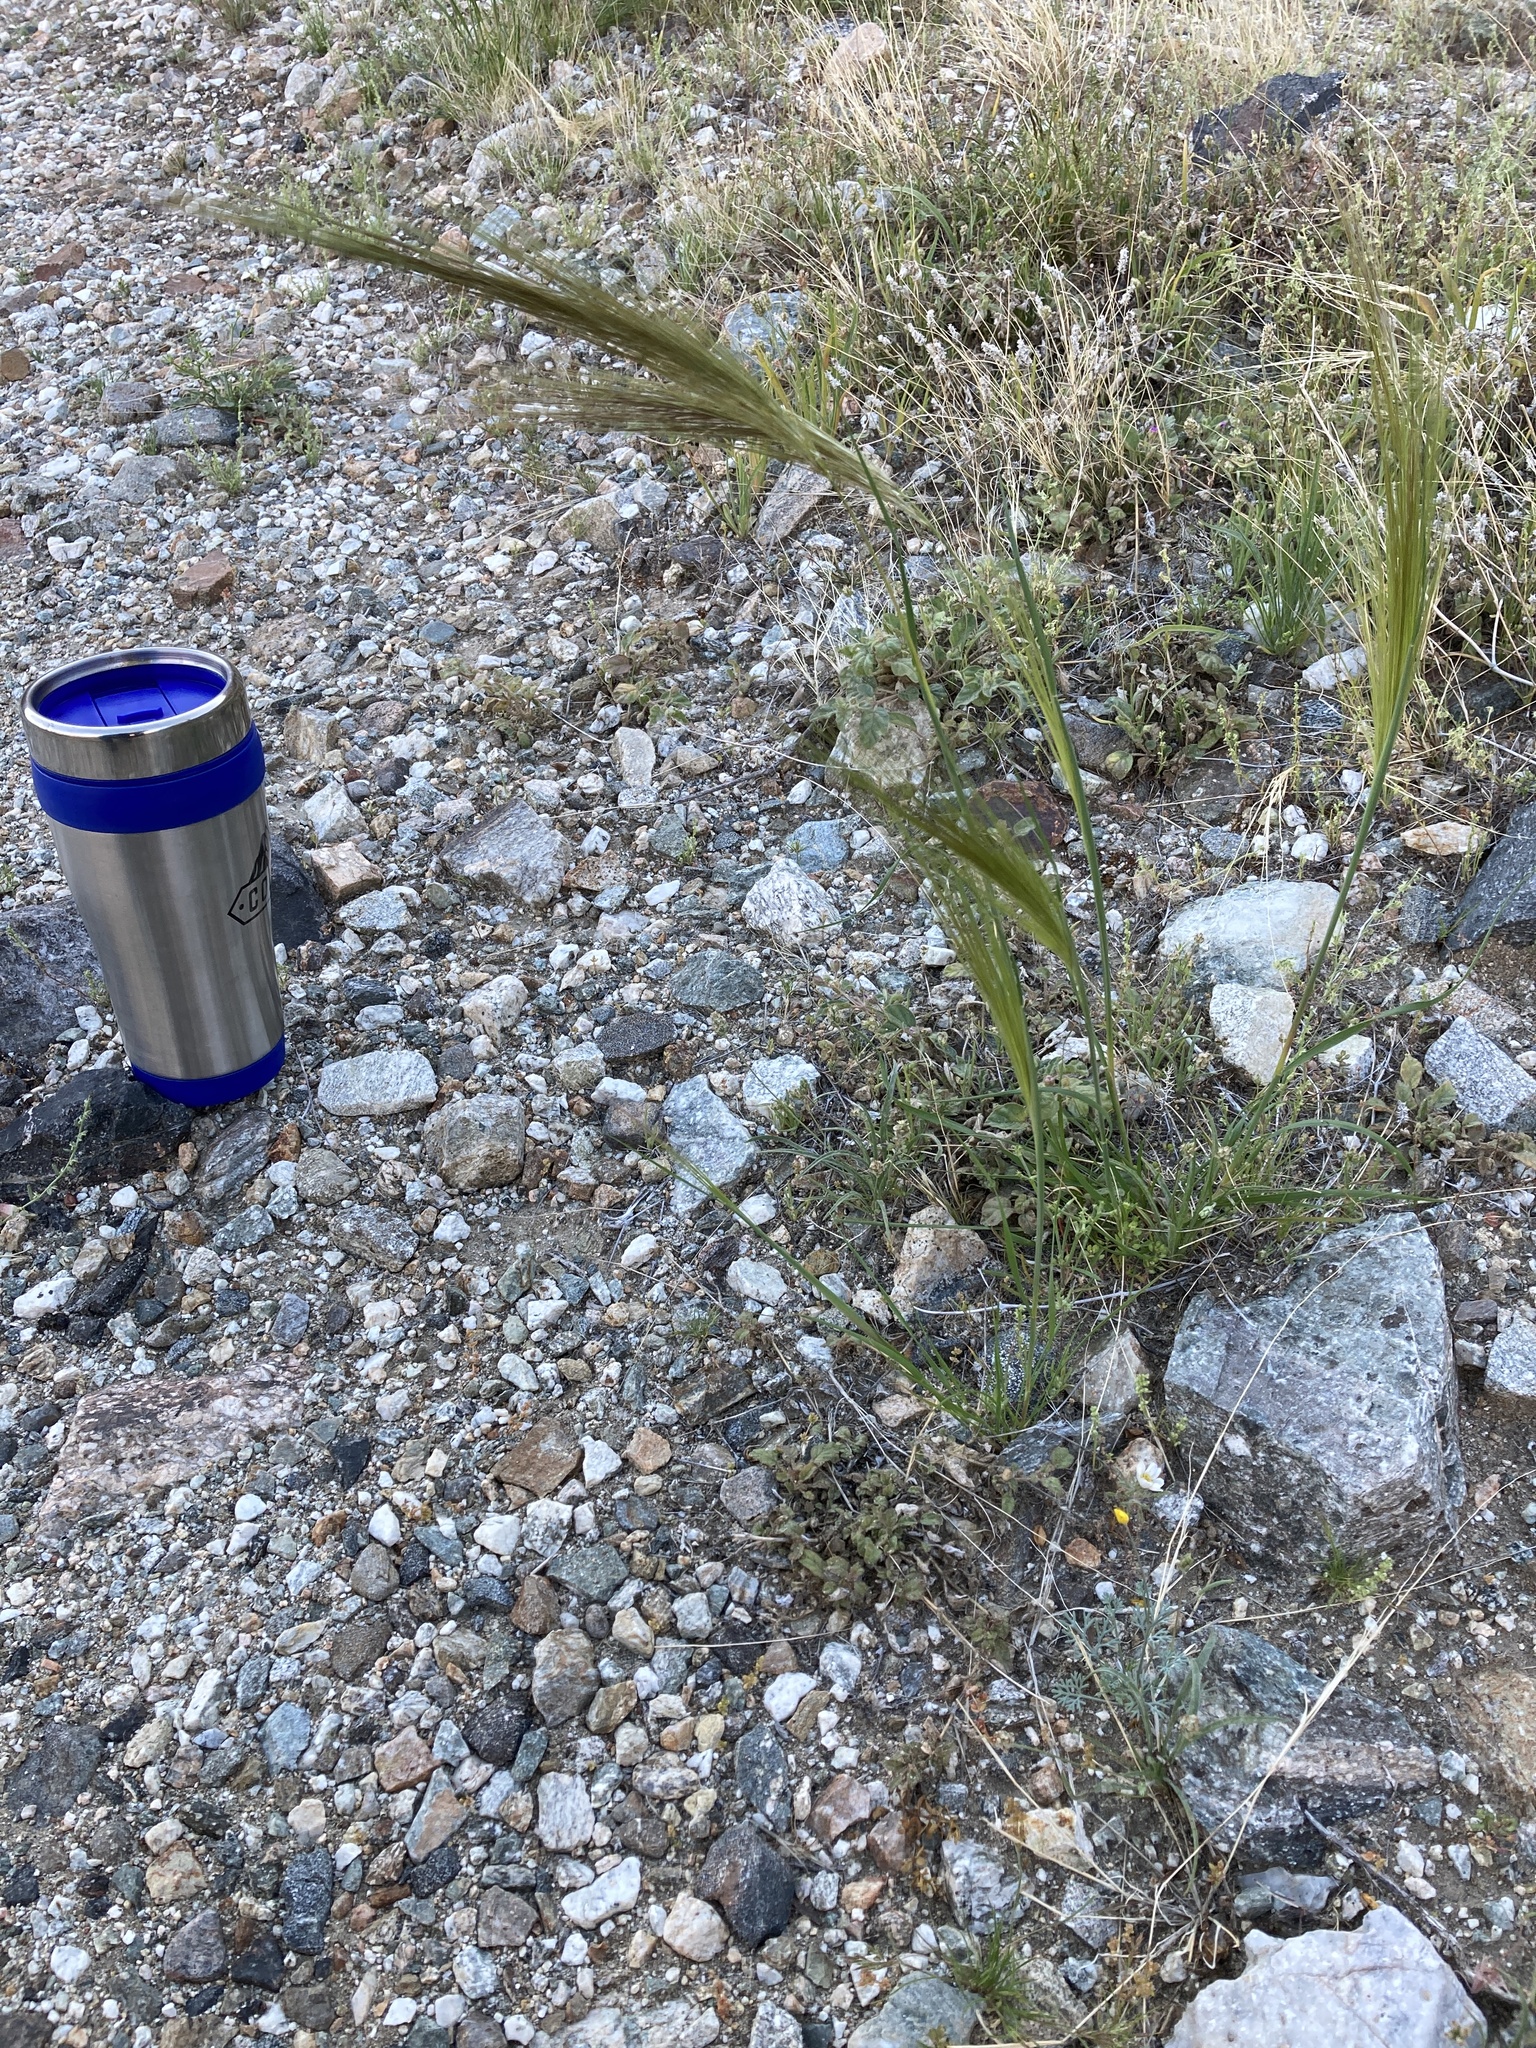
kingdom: Plantae
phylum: Tracheophyta
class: Liliopsida
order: Poales
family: Poaceae
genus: Stipellula
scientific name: Stipellula capensis
